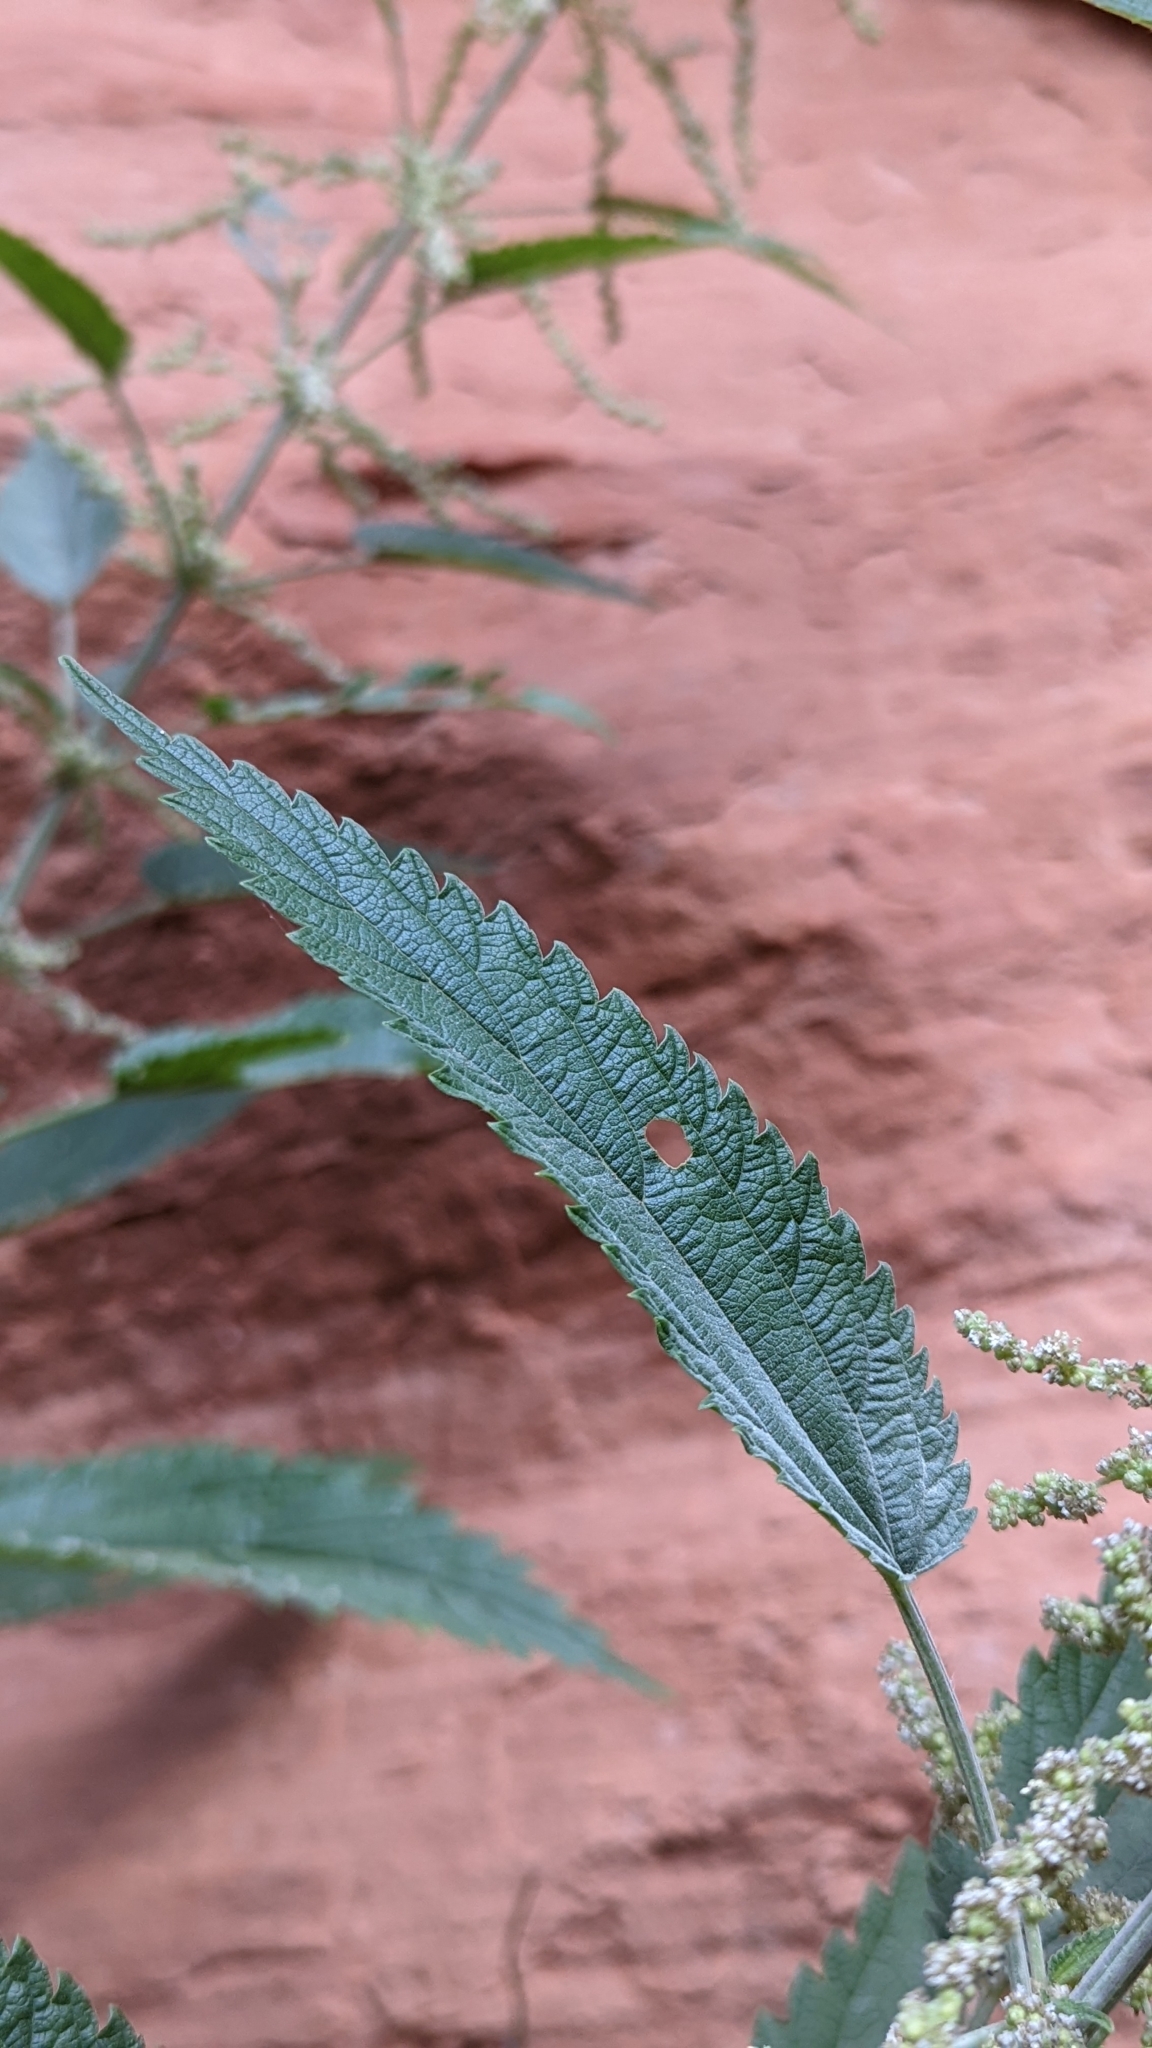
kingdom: Plantae
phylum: Tracheophyta
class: Magnoliopsida
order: Rosales
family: Urticaceae
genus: Urtica
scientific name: Urtica gracilis
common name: Slender stinging nettle
